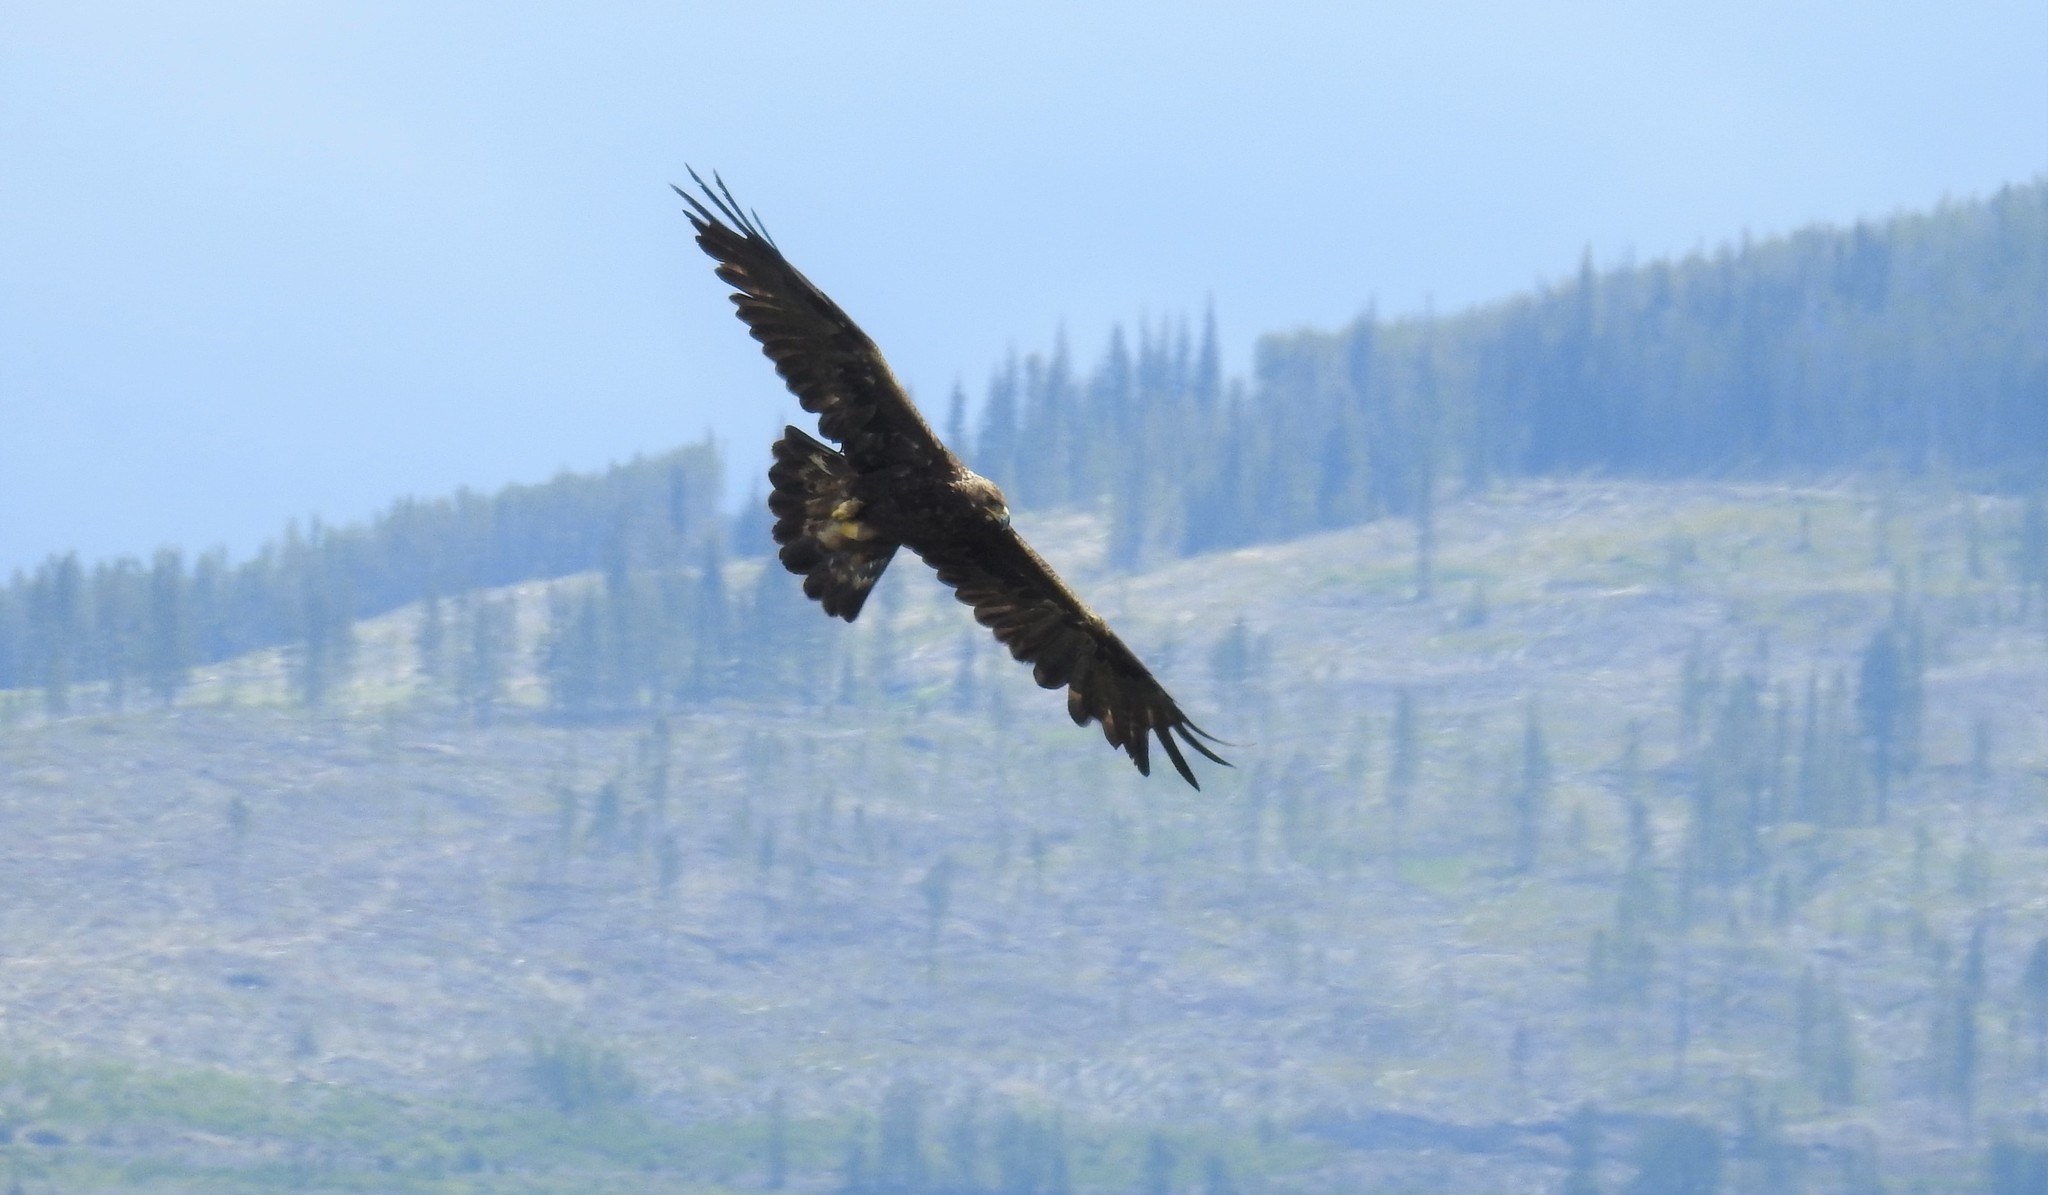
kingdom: Animalia
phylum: Chordata
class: Aves
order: Accipitriformes
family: Accipitridae
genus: Aquila
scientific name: Aquila chrysaetos
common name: Golden eagle
